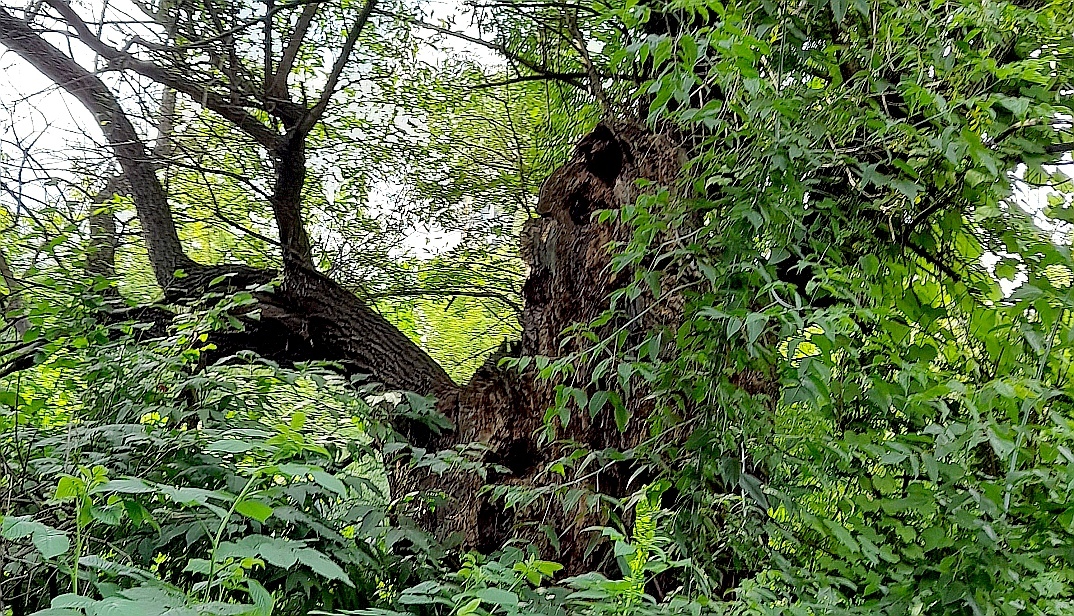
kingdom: Plantae
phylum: Tracheophyta
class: Magnoliopsida
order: Malpighiales
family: Salicaceae
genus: Salix
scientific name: Salix fragilis
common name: Crack willow
